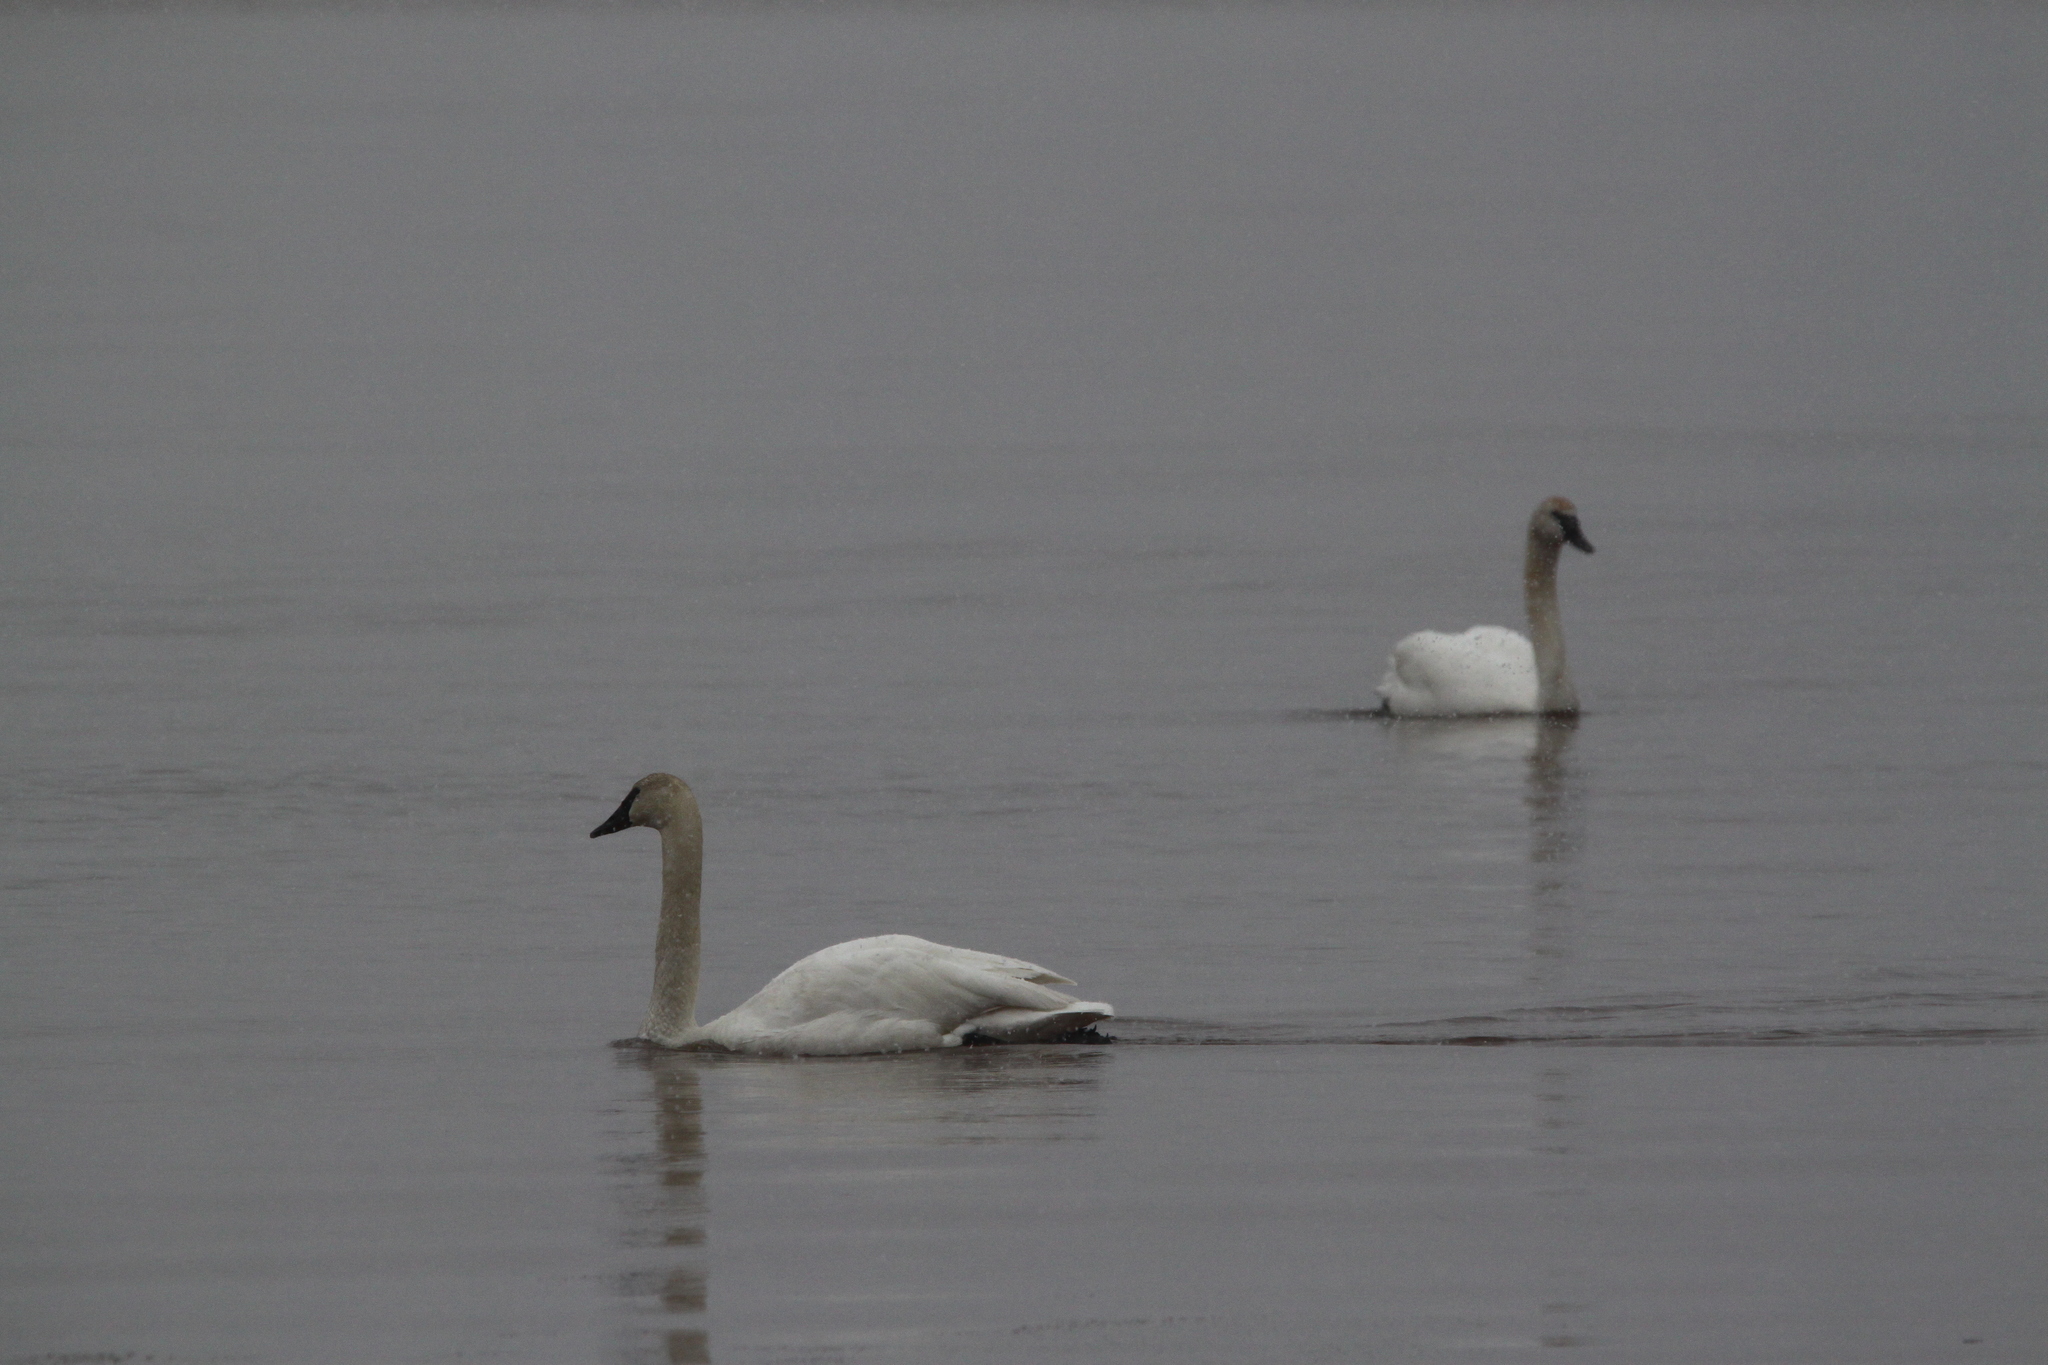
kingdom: Animalia
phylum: Chordata
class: Aves
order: Anseriformes
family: Anatidae
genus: Cygnus
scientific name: Cygnus buccinator
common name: Trumpeter swan
